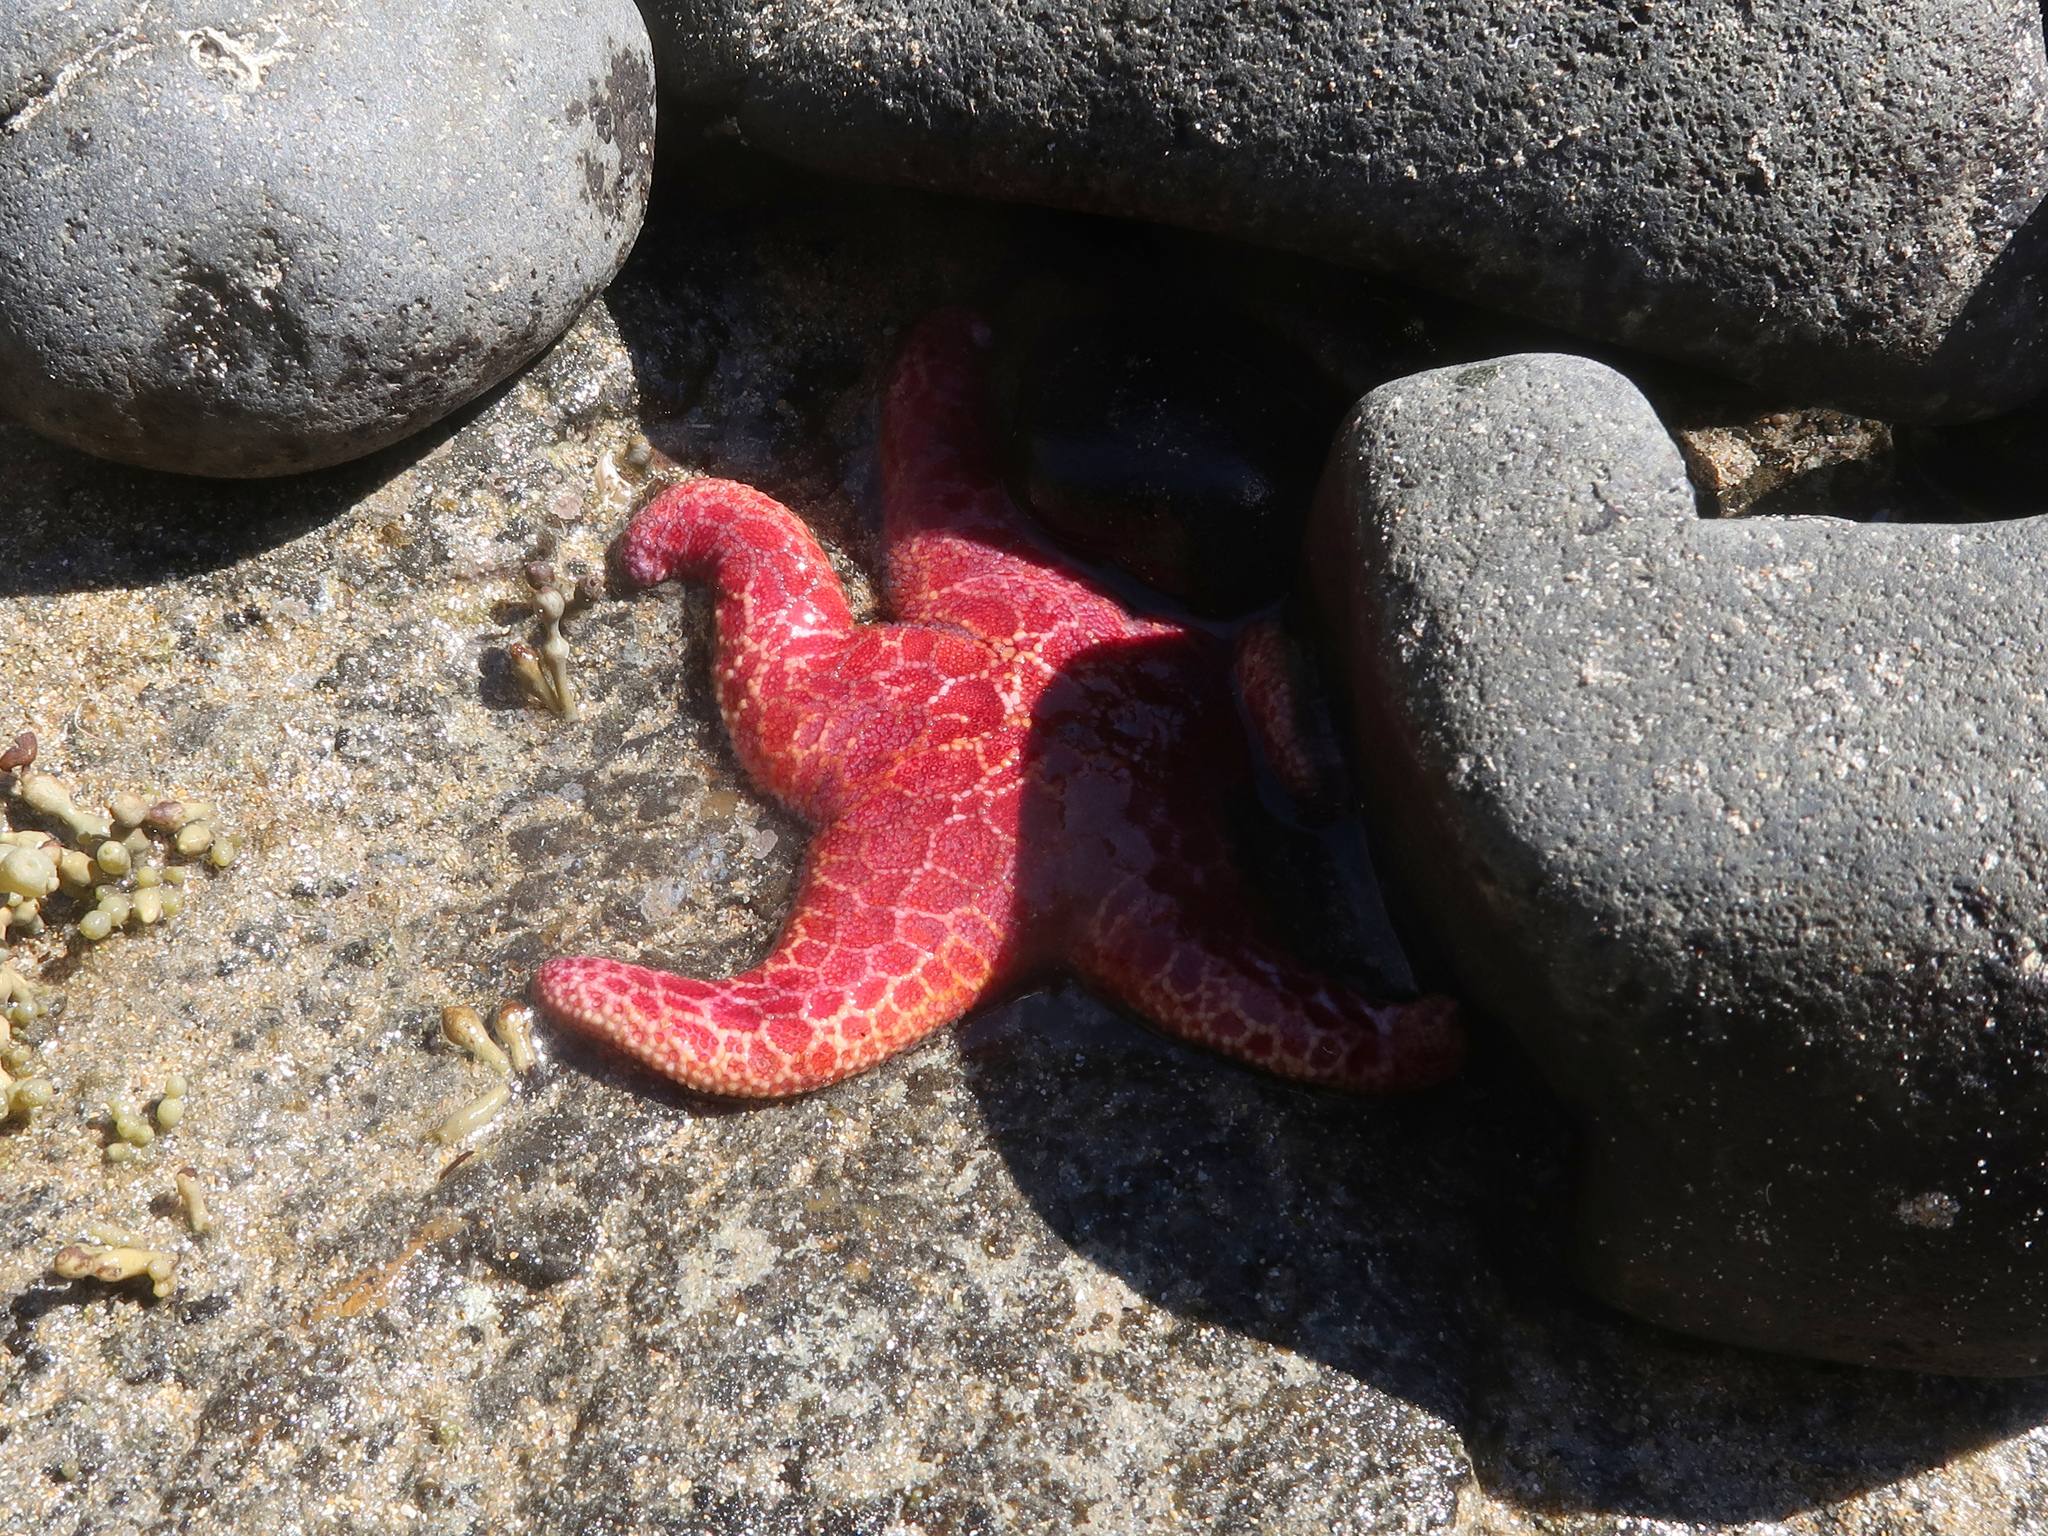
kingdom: Animalia
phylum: Echinodermata
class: Asteroidea
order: Spinulosida
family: Echinasteridae
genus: Plectaster
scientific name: Plectaster decanus
